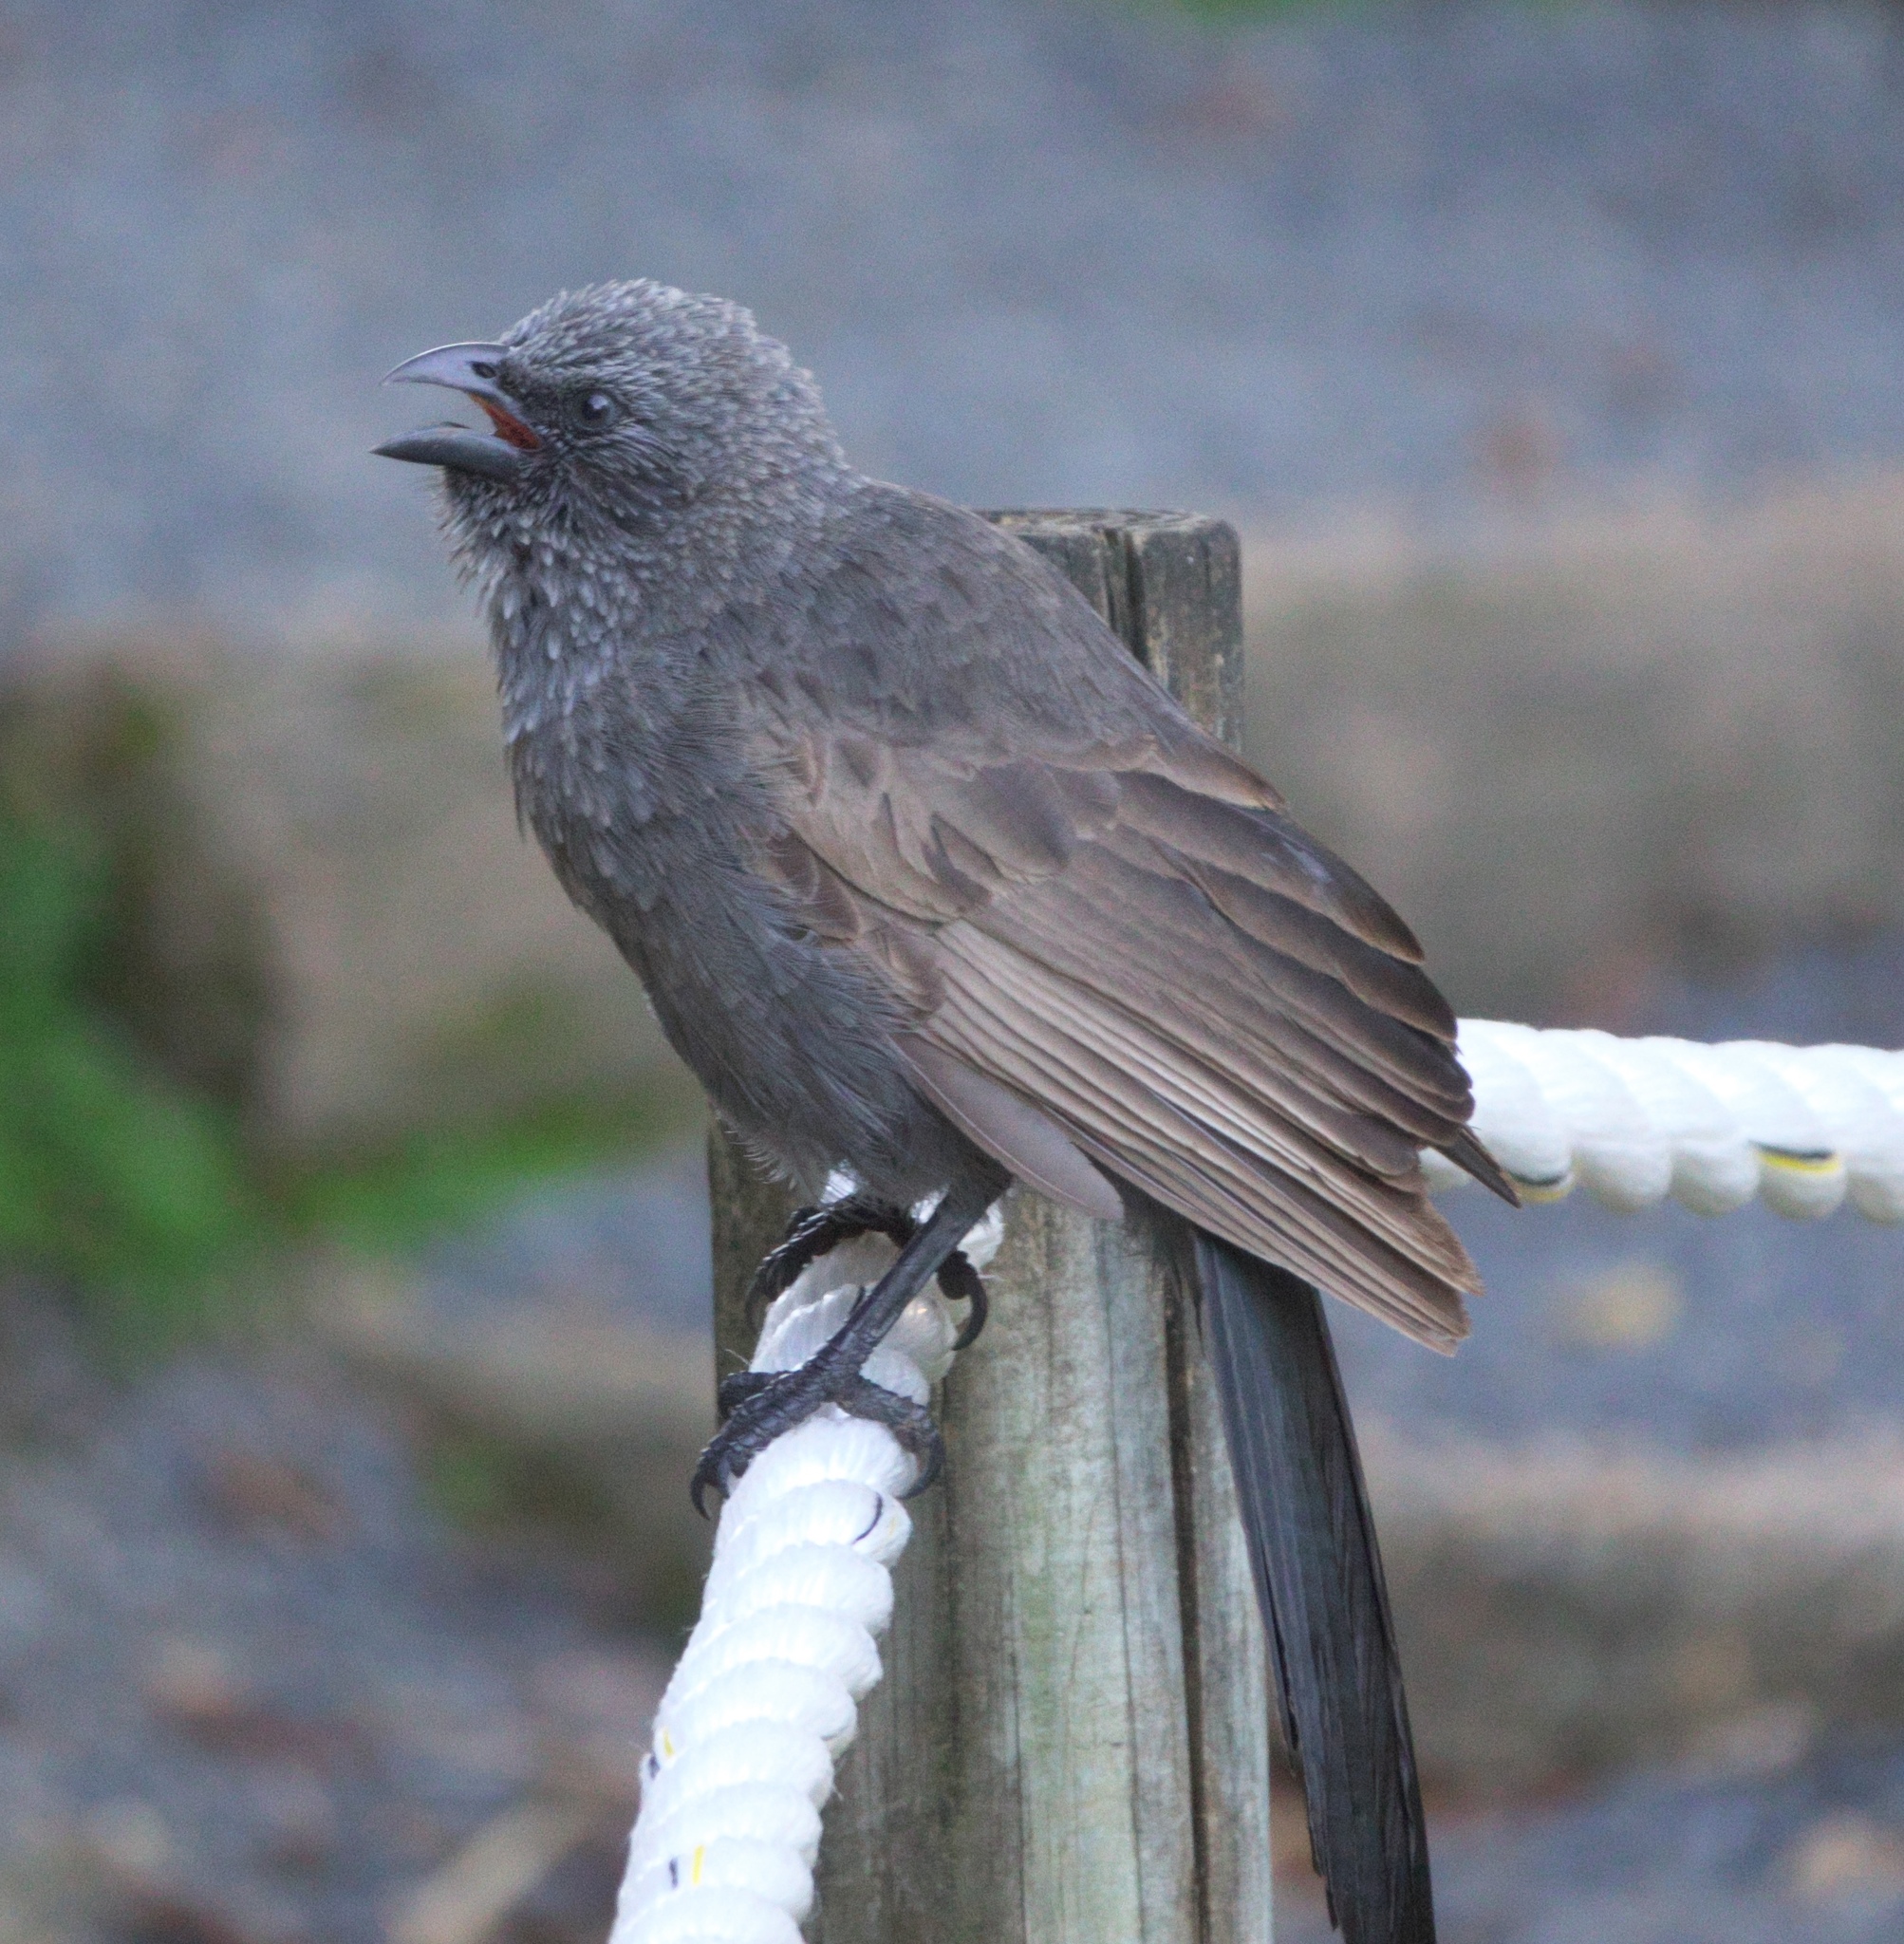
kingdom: Animalia
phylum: Chordata
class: Aves
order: Passeriformes
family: Corcoracidae
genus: Struthidea
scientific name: Struthidea cinerea
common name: Apostlebird
